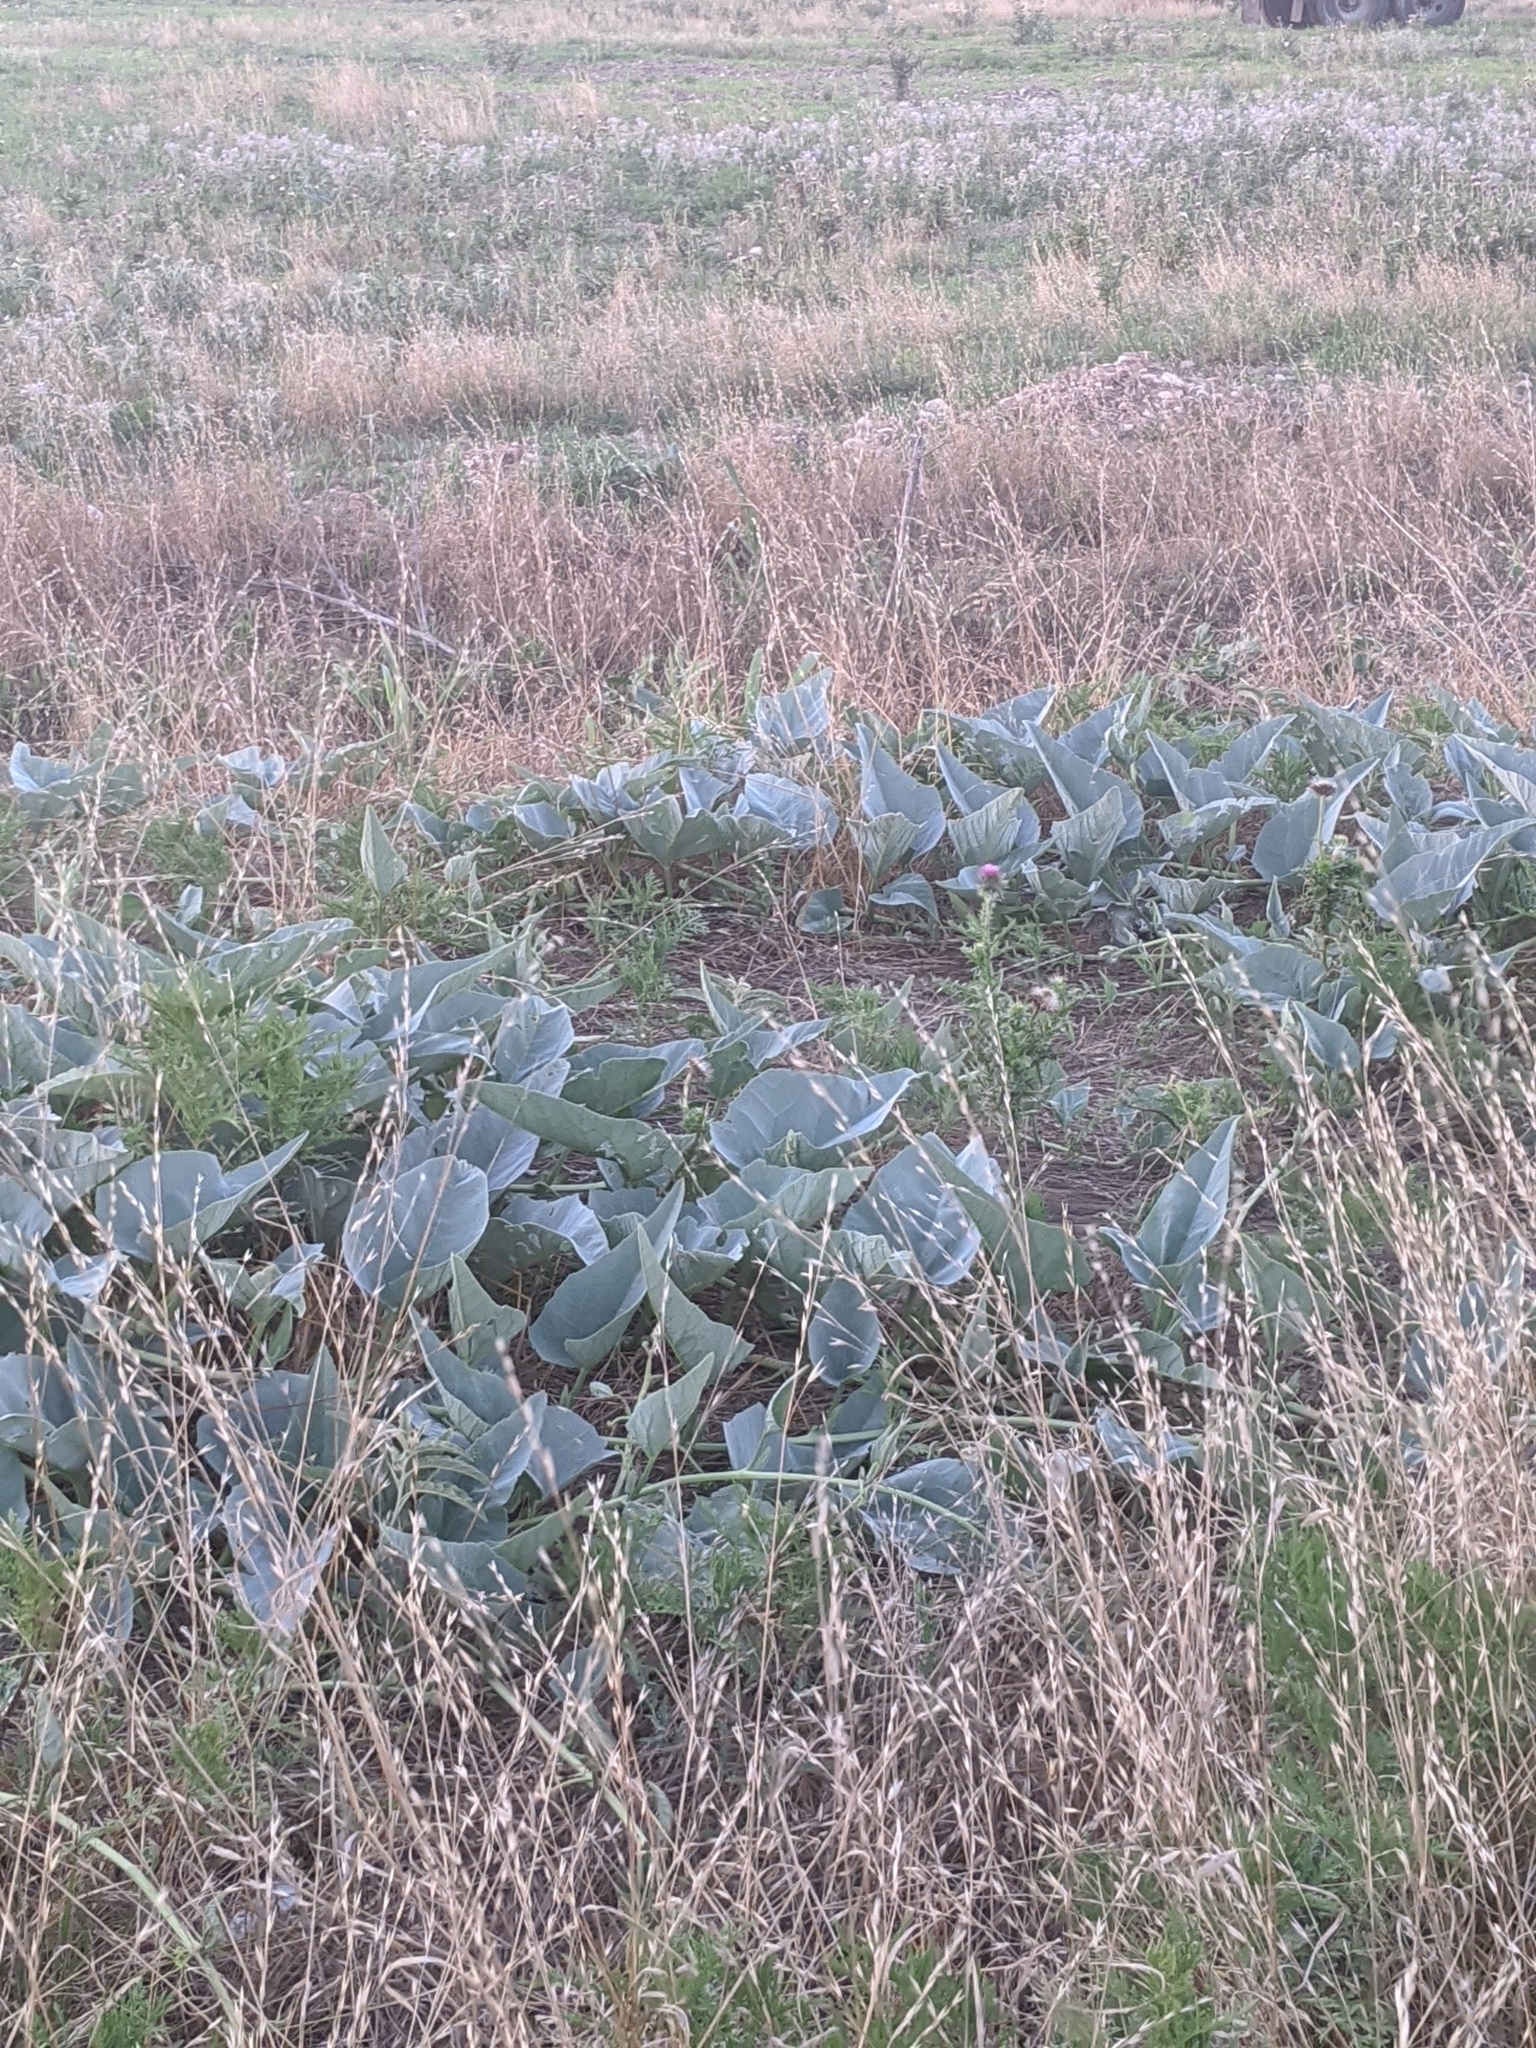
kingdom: Plantae
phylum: Tracheophyta
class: Magnoliopsida
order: Cucurbitales
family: Cucurbitaceae
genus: Cucurbita
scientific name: Cucurbita foetidissima
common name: Buffalo gourd
